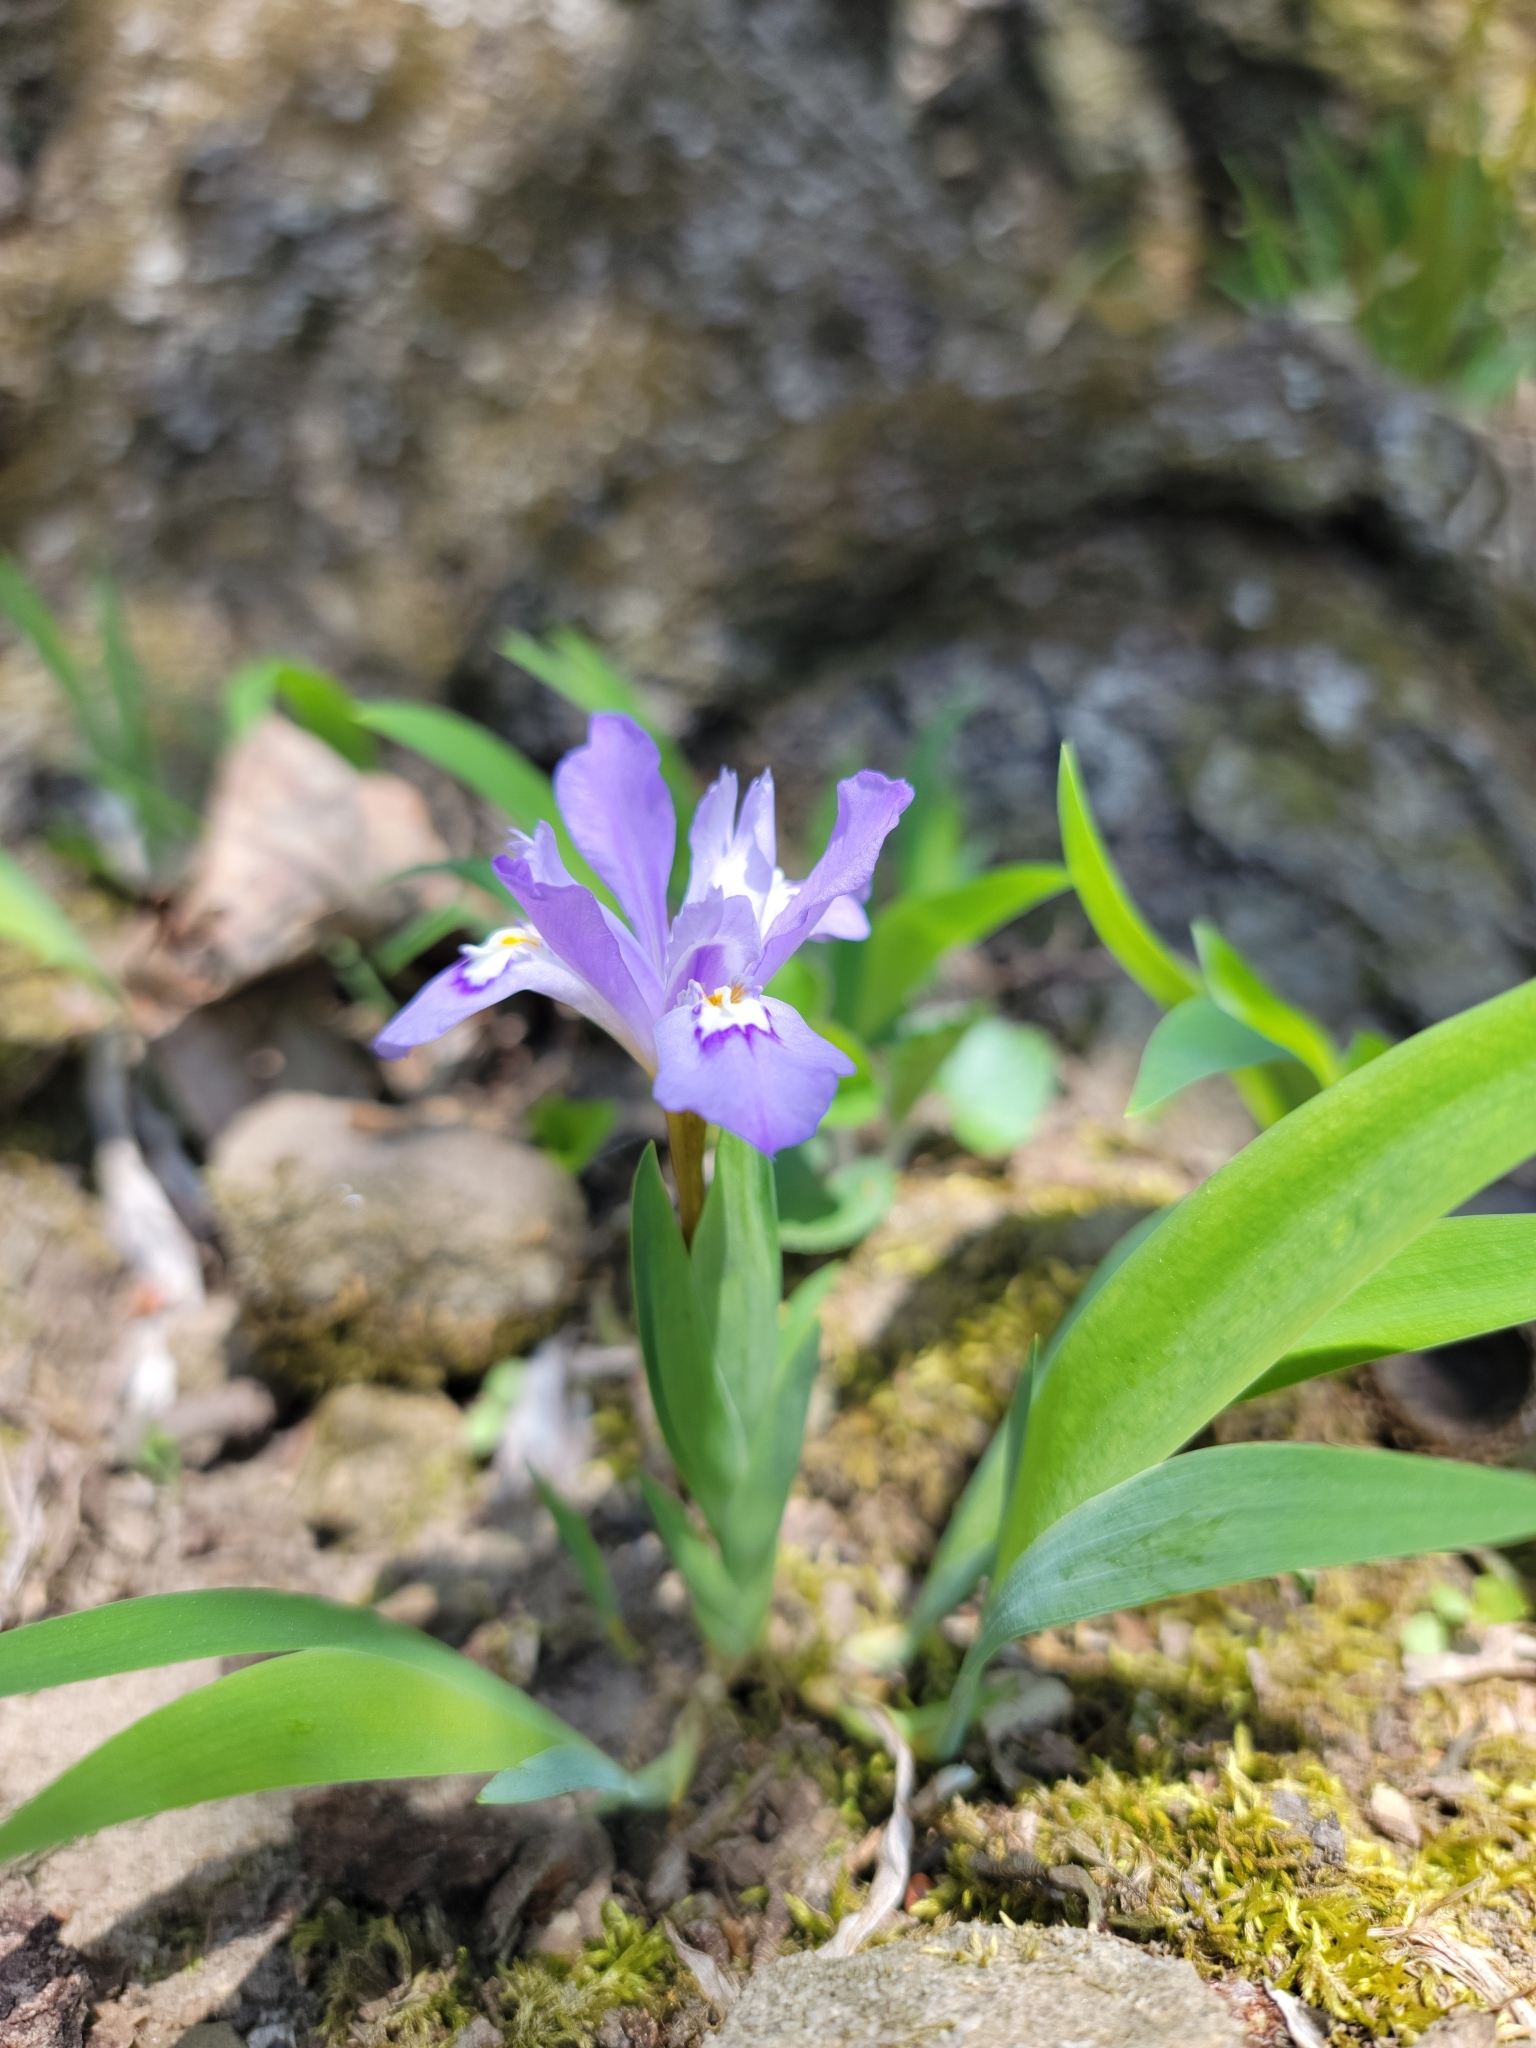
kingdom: Plantae
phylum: Tracheophyta
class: Liliopsida
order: Asparagales
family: Iridaceae
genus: Iris
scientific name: Iris cristata
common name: Crested iris
